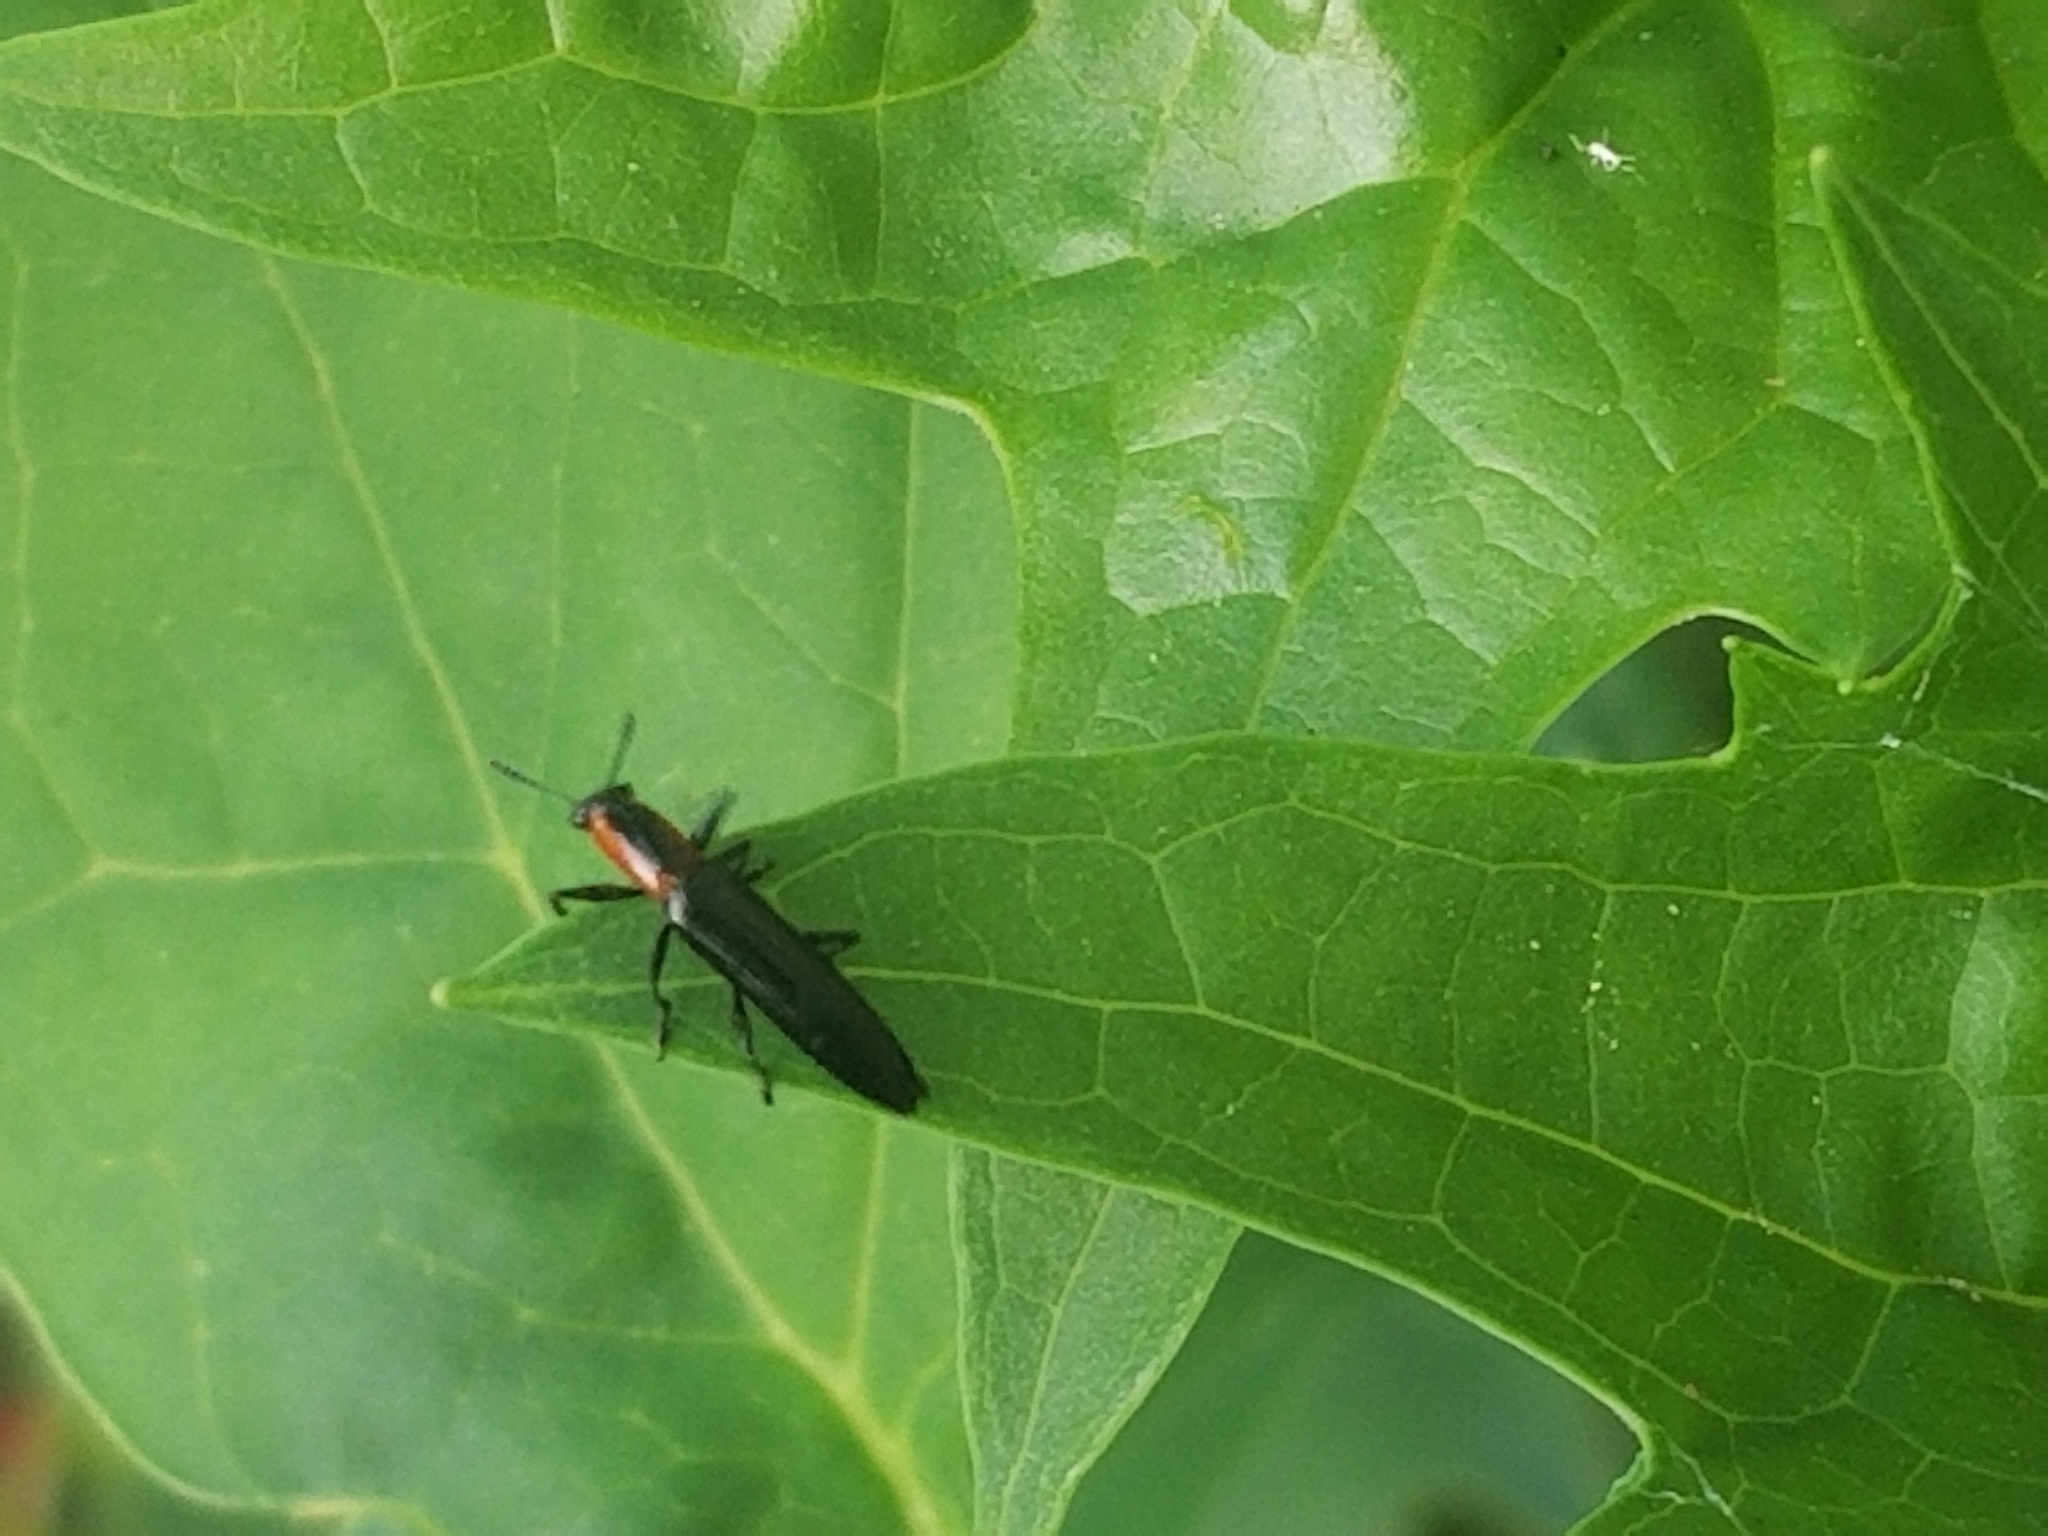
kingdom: Animalia
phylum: Arthropoda
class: Insecta
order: Coleoptera
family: Erotylidae
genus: Acropteroxys
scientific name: Acropteroxys gracilis
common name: Slender lizard beetle
